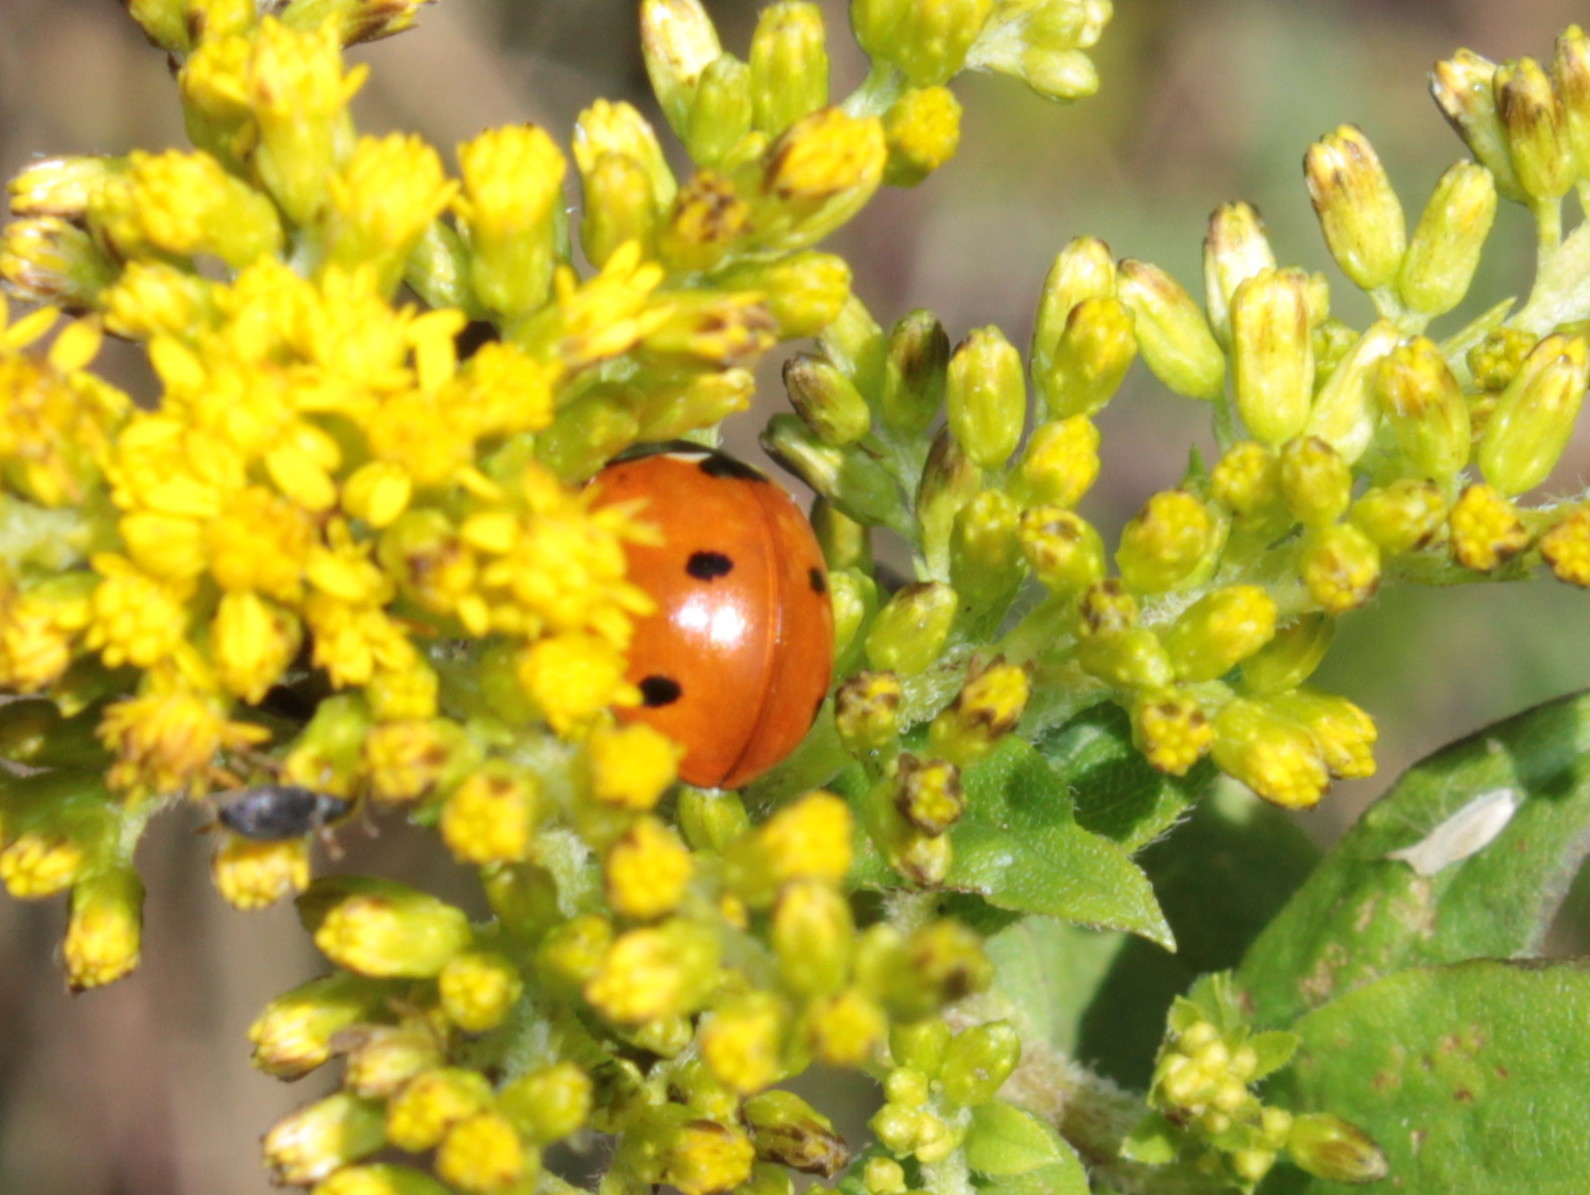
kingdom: Animalia
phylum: Arthropoda
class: Insecta
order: Coleoptera
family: Coccinellidae
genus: Coccinella
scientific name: Coccinella septempunctata
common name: Sevenspotted lady beetle
